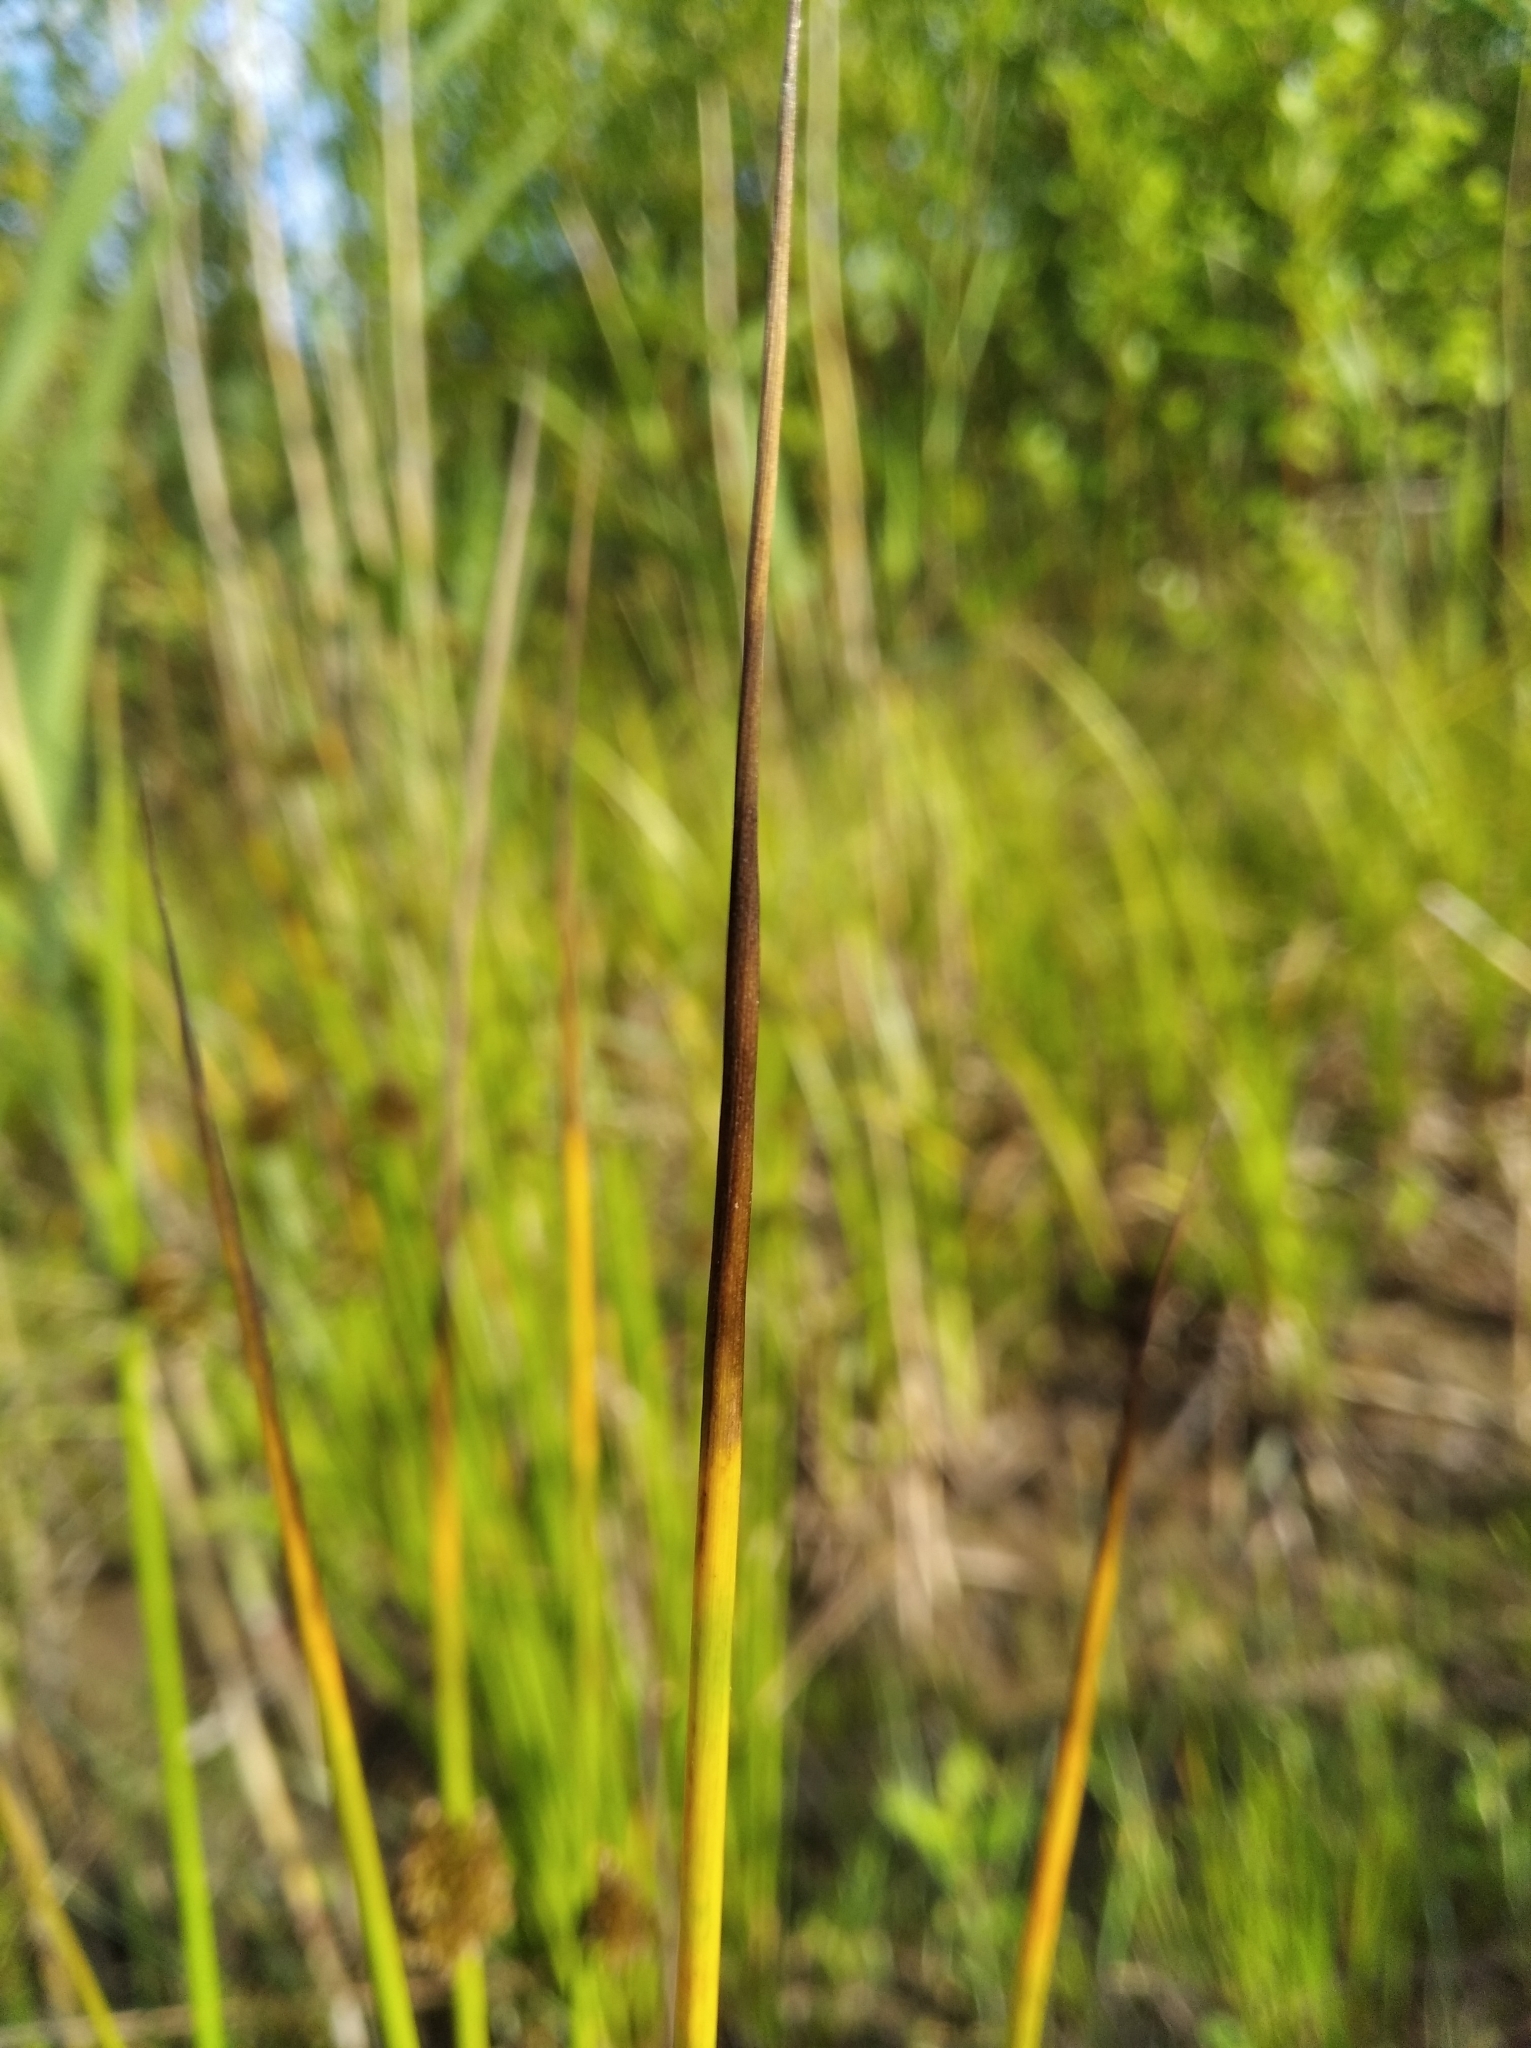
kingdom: Plantae
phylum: Tracheophyta
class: Liliopsida
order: Poales
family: Juncaceae
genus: Juncus
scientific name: Juncus conglomeratus
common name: Compact rush
